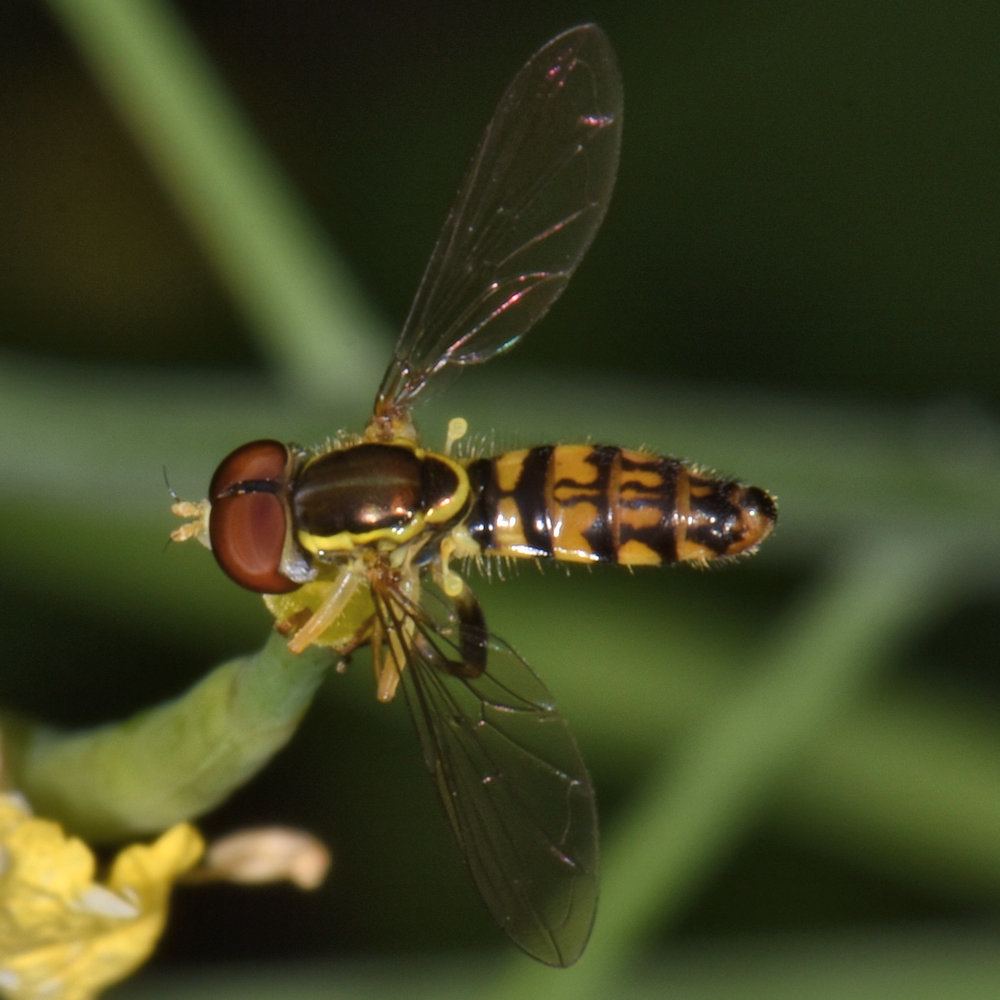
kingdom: Animalia
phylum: Arthropoda
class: Insecta
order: Diptera
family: Syrphidae
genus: Toxomerus
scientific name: Toxomerus geminatus
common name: Eastern calligrapher
